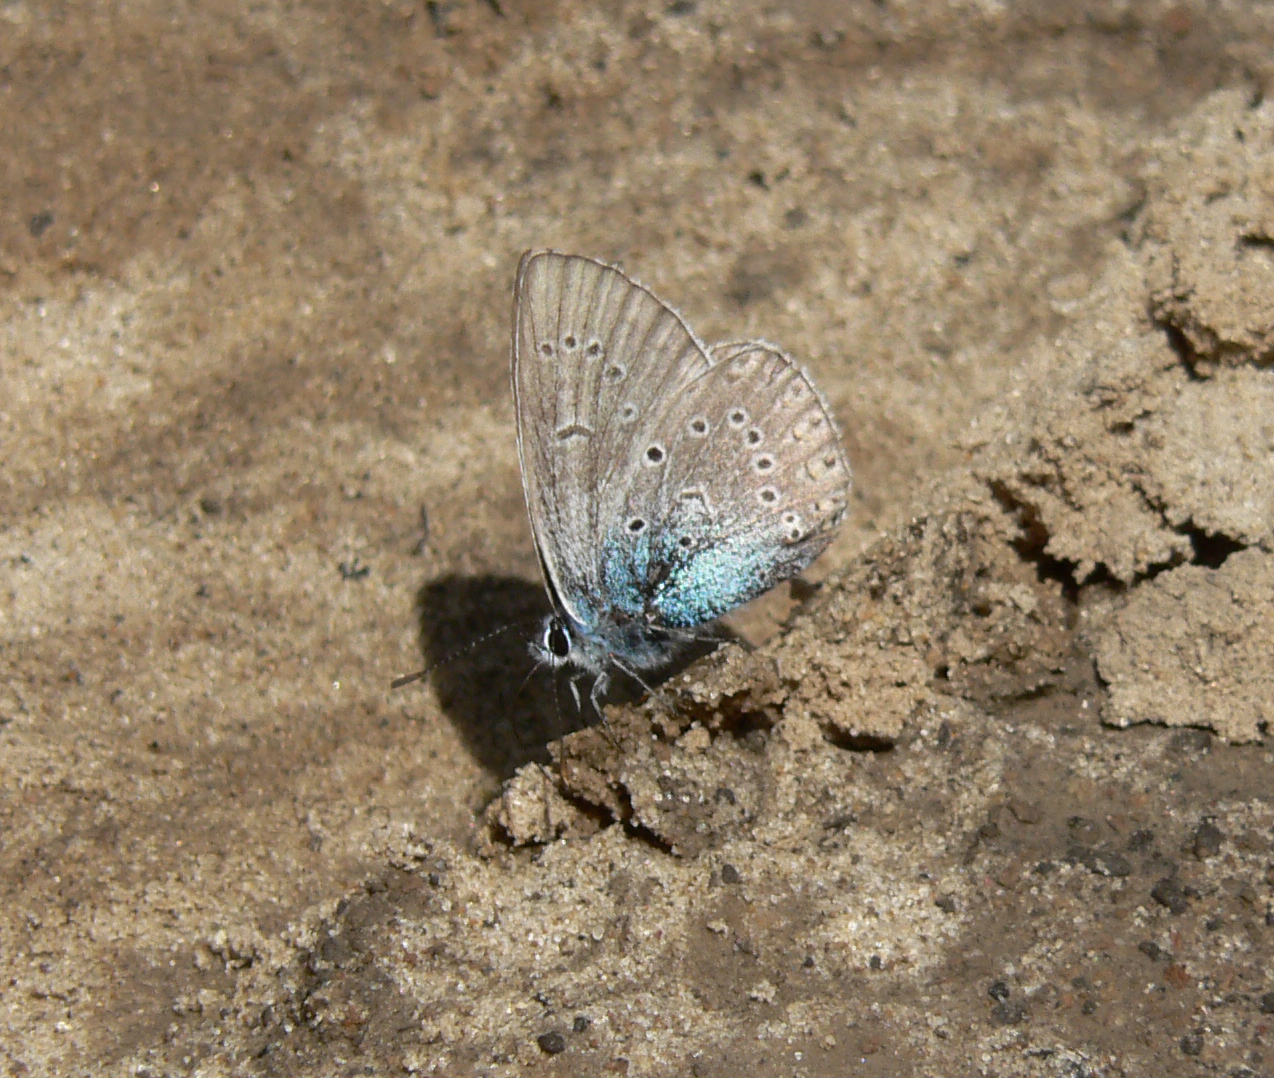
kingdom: Animalia
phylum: Arthropoda
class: Insecta
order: Lepidoptera
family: Lycaenidae
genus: Plebejus
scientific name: Plebejus amanda
